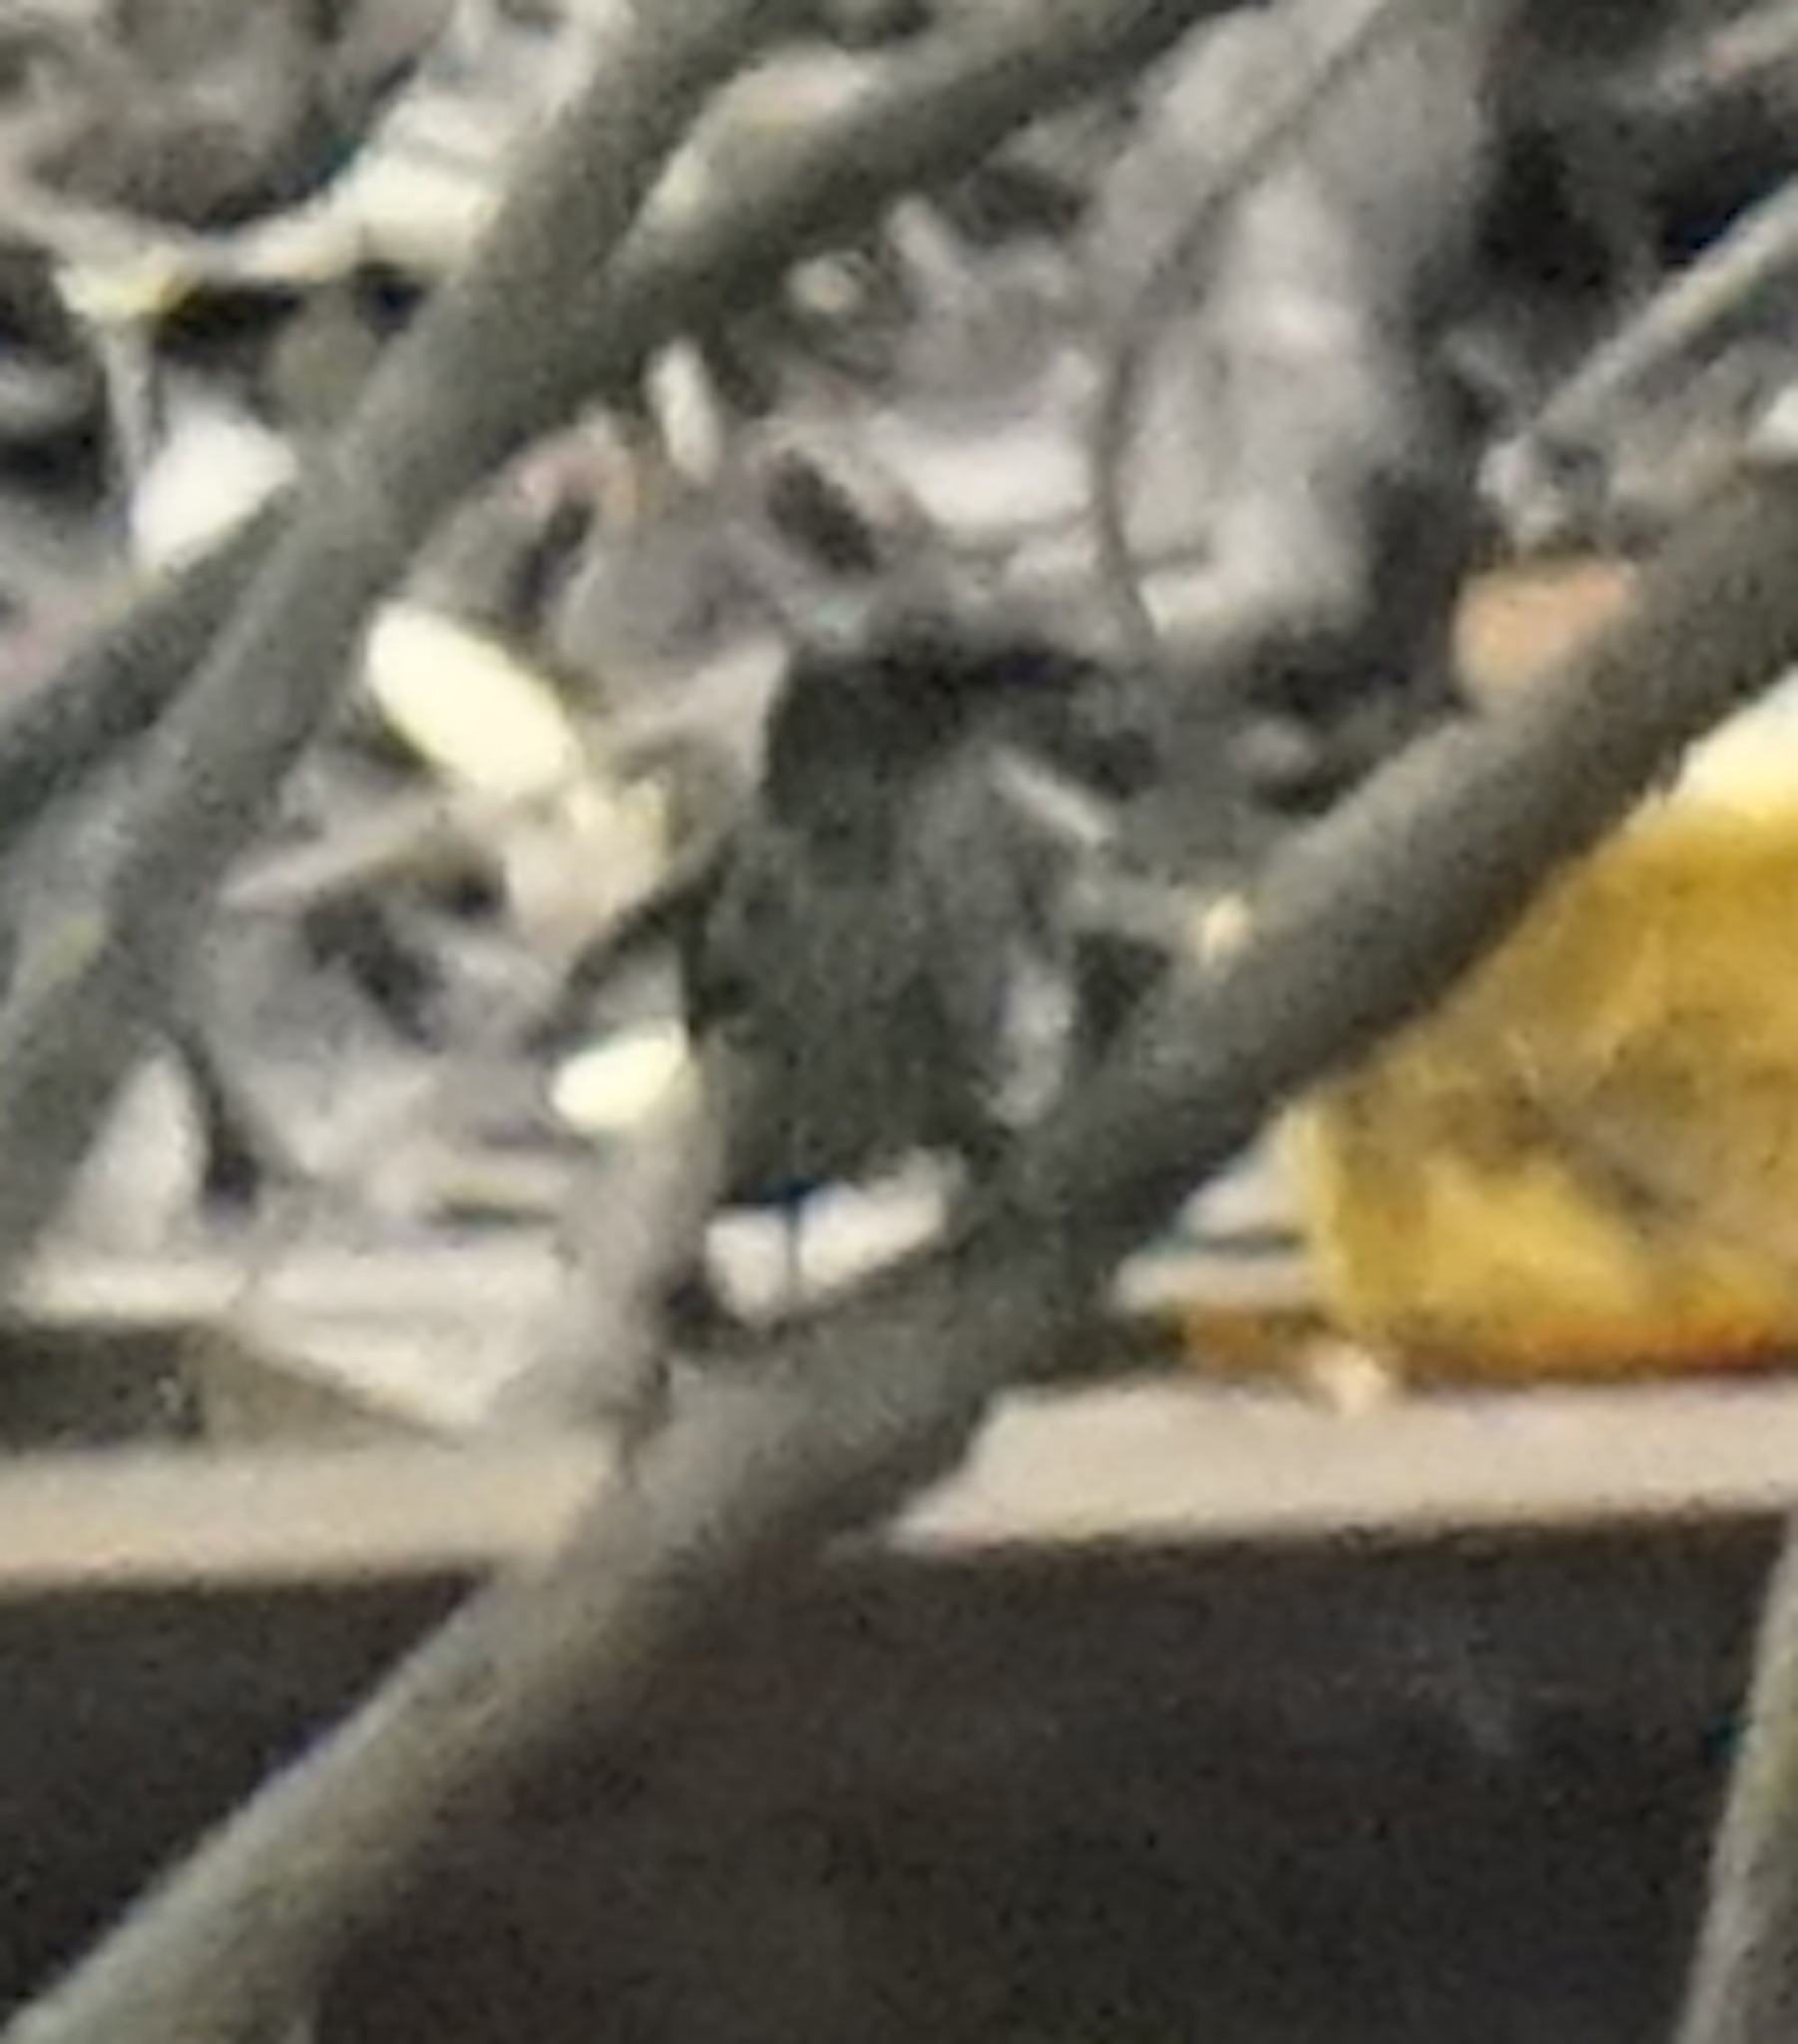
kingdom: Animalia
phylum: Chordata
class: Aves
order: Passeriformes
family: Sturnidae
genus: Aplonis
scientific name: Aplonis panayensis
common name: Asian glossy starling
